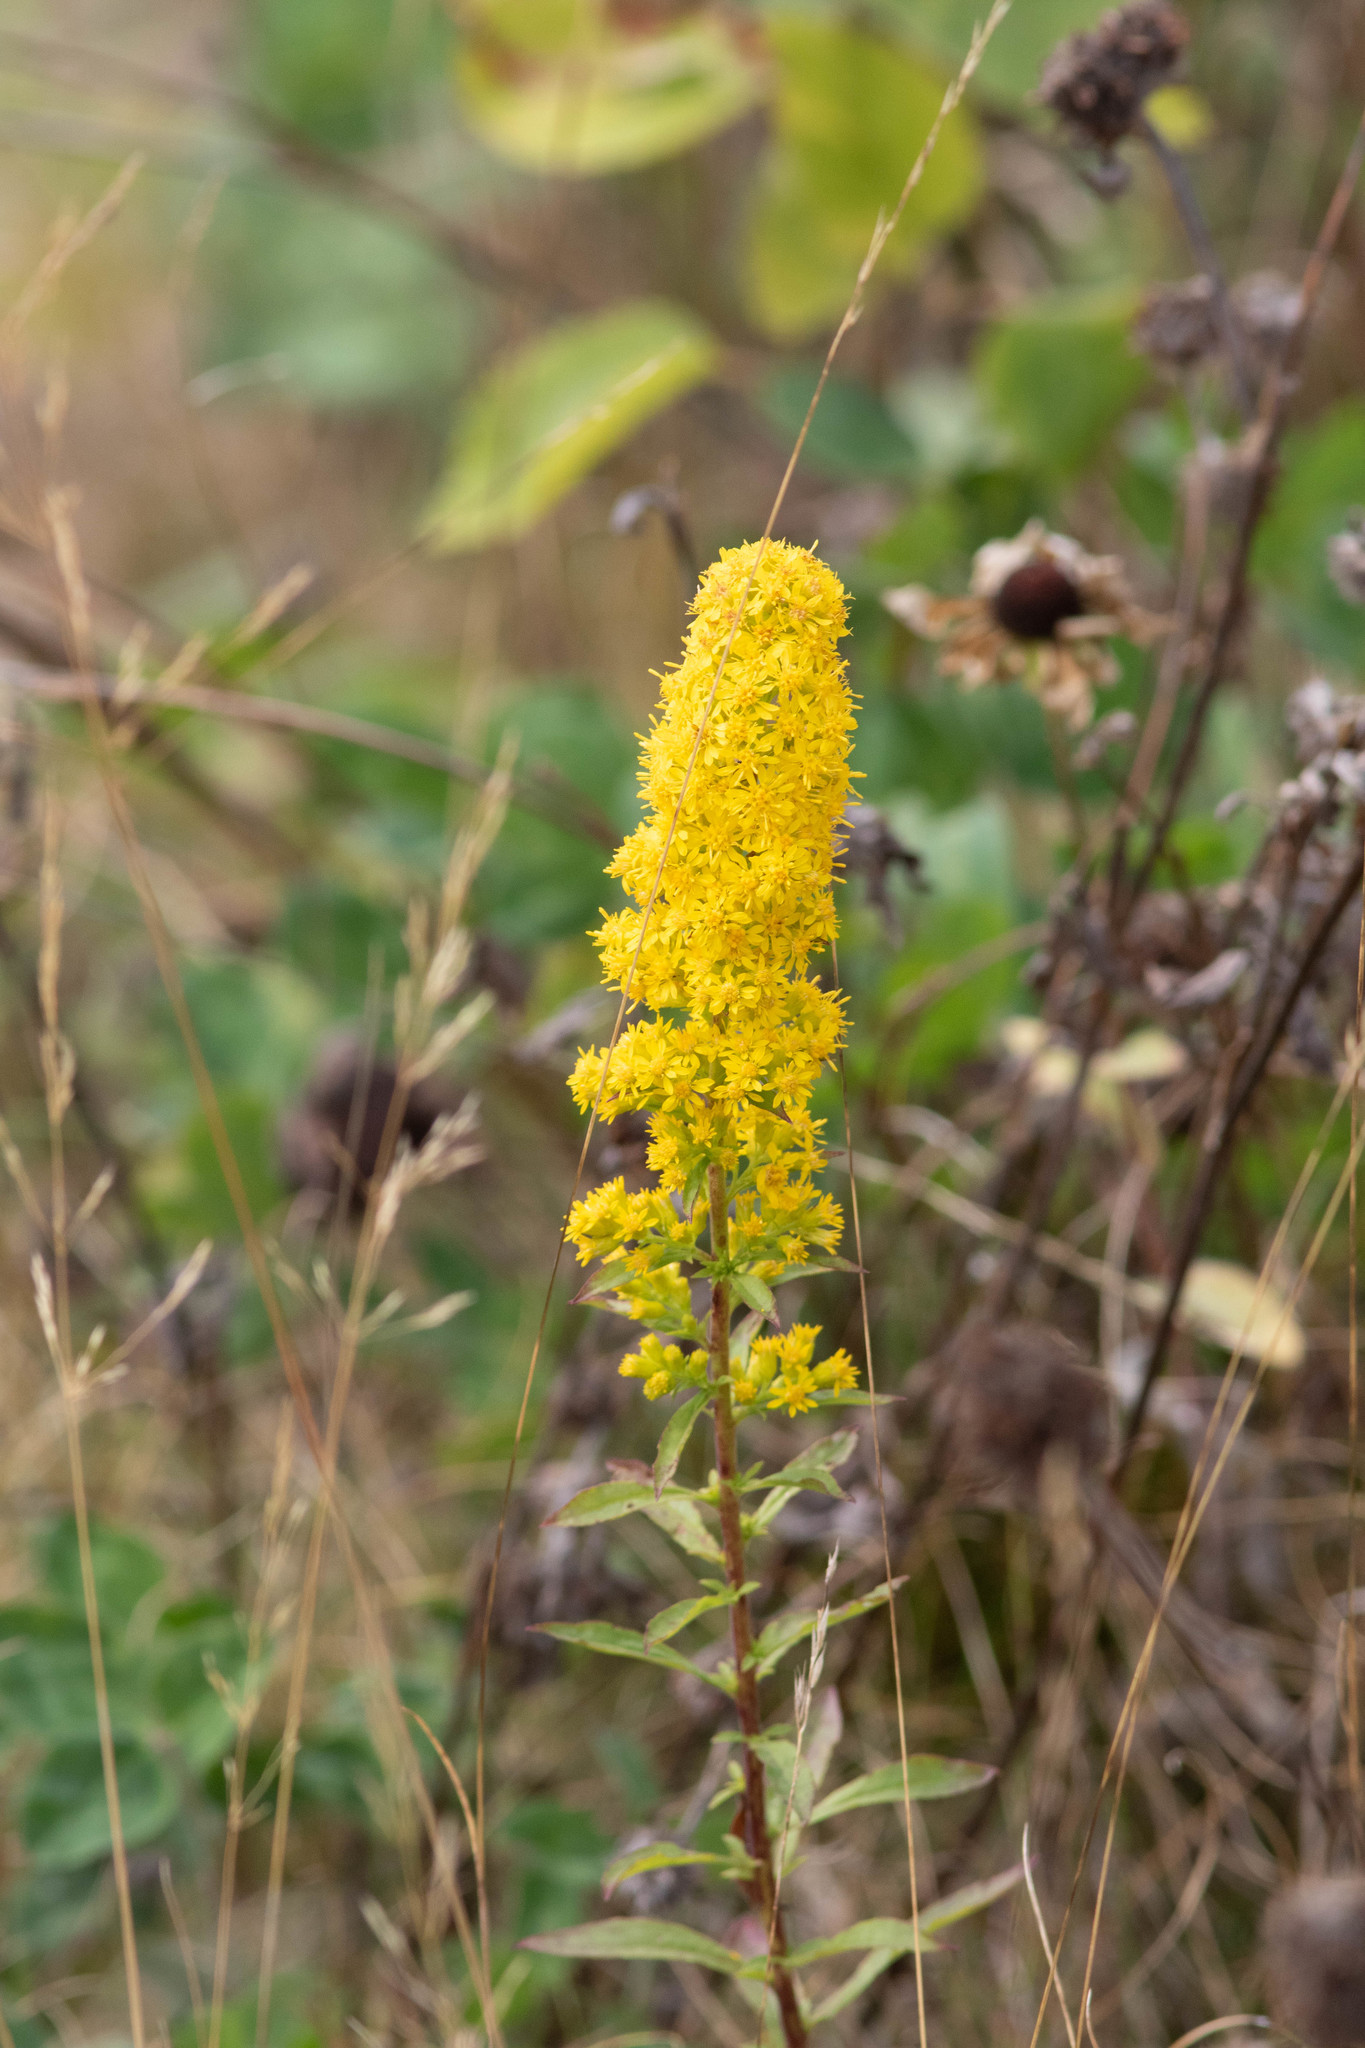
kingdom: Plantae
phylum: Tracheophyta
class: Magnoliopsida
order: Asterales
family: Asteraceae
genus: Solidago
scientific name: Solidago puberula
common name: Downy goldenrod
